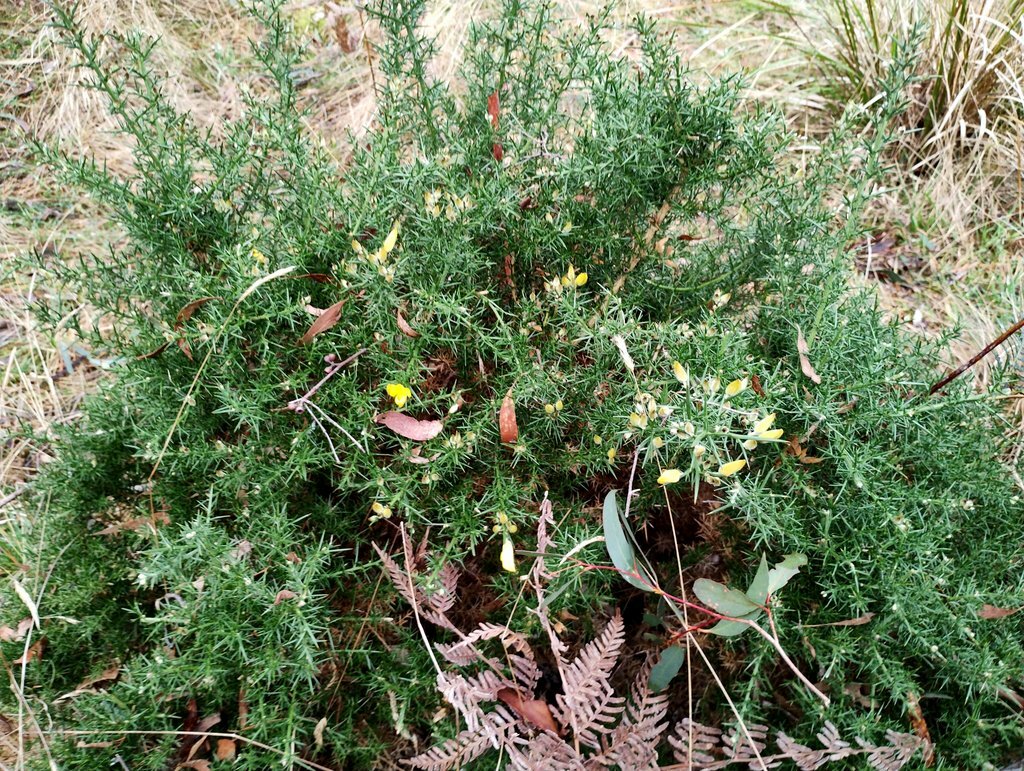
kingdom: Plantae
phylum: Tracheophyta
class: Magnoliopsida
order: Fabales
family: Fabaceae
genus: Ulex
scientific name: Ulex europaeus
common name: Common gorse
